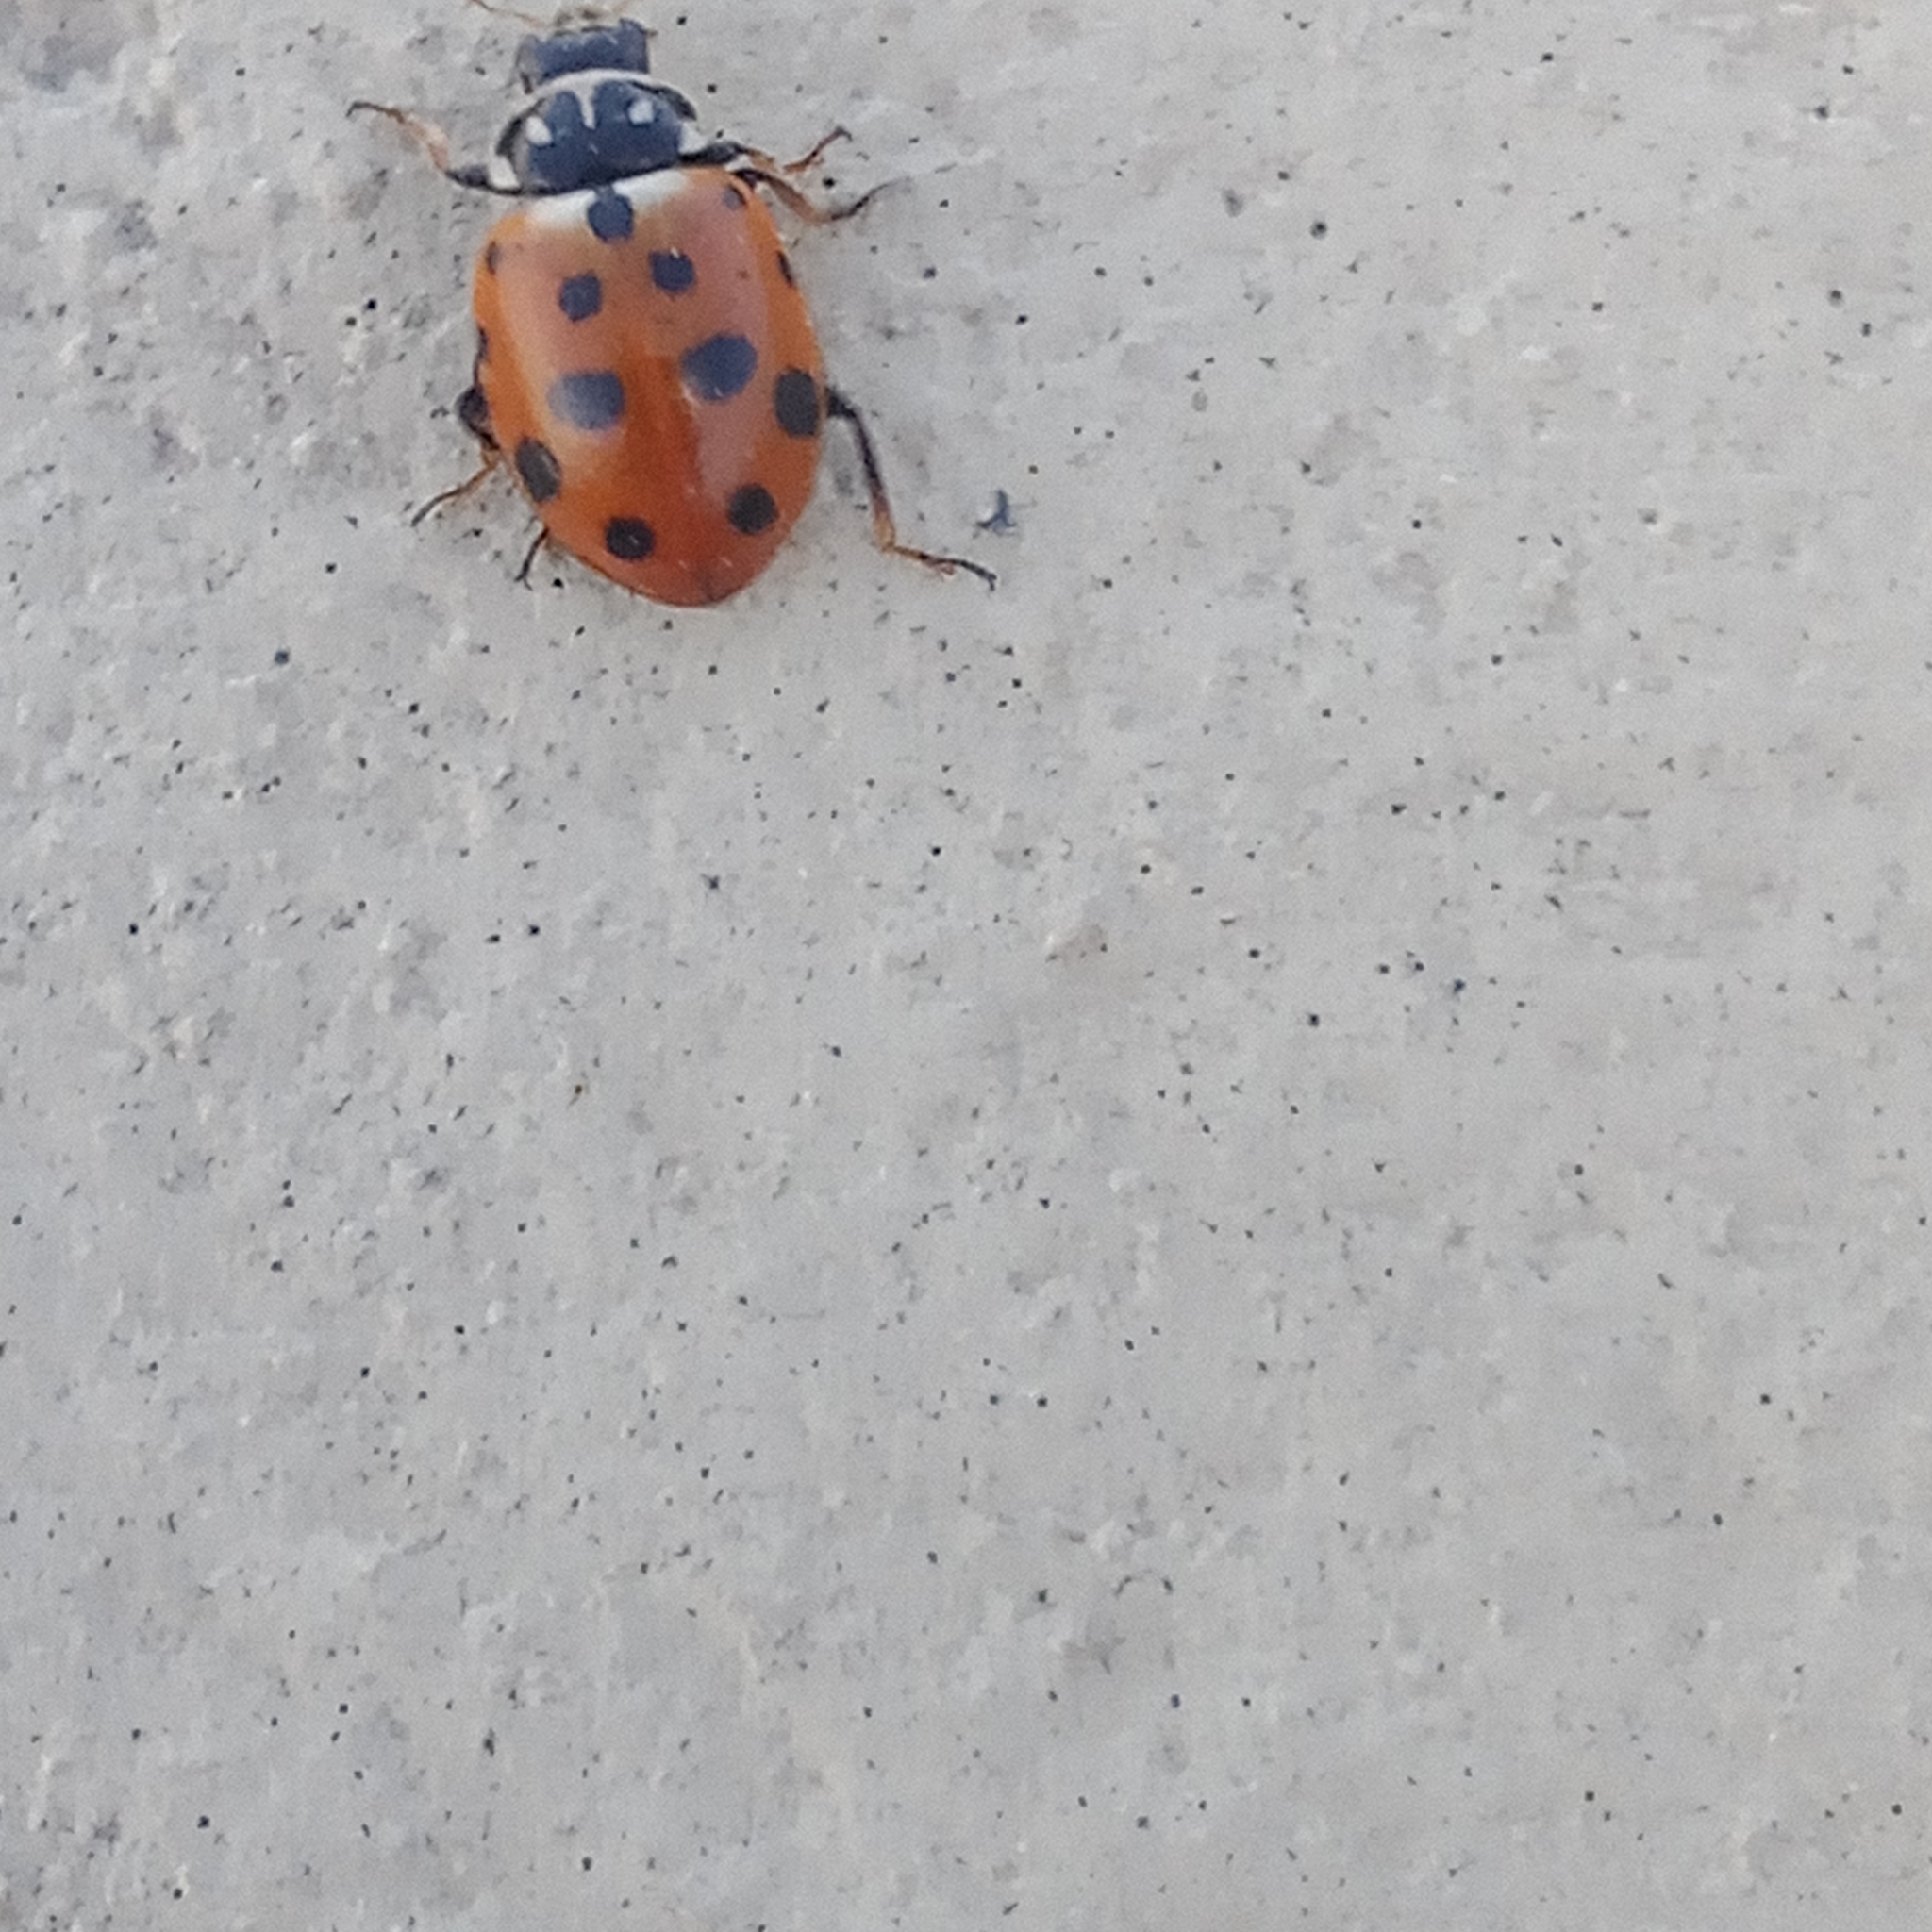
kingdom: Animalia
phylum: Arthropoda
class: Insecta
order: Coleoptera
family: Coccinellidae
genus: Hippodamia
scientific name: Hippodamia variegata
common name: Ladybird beetle
